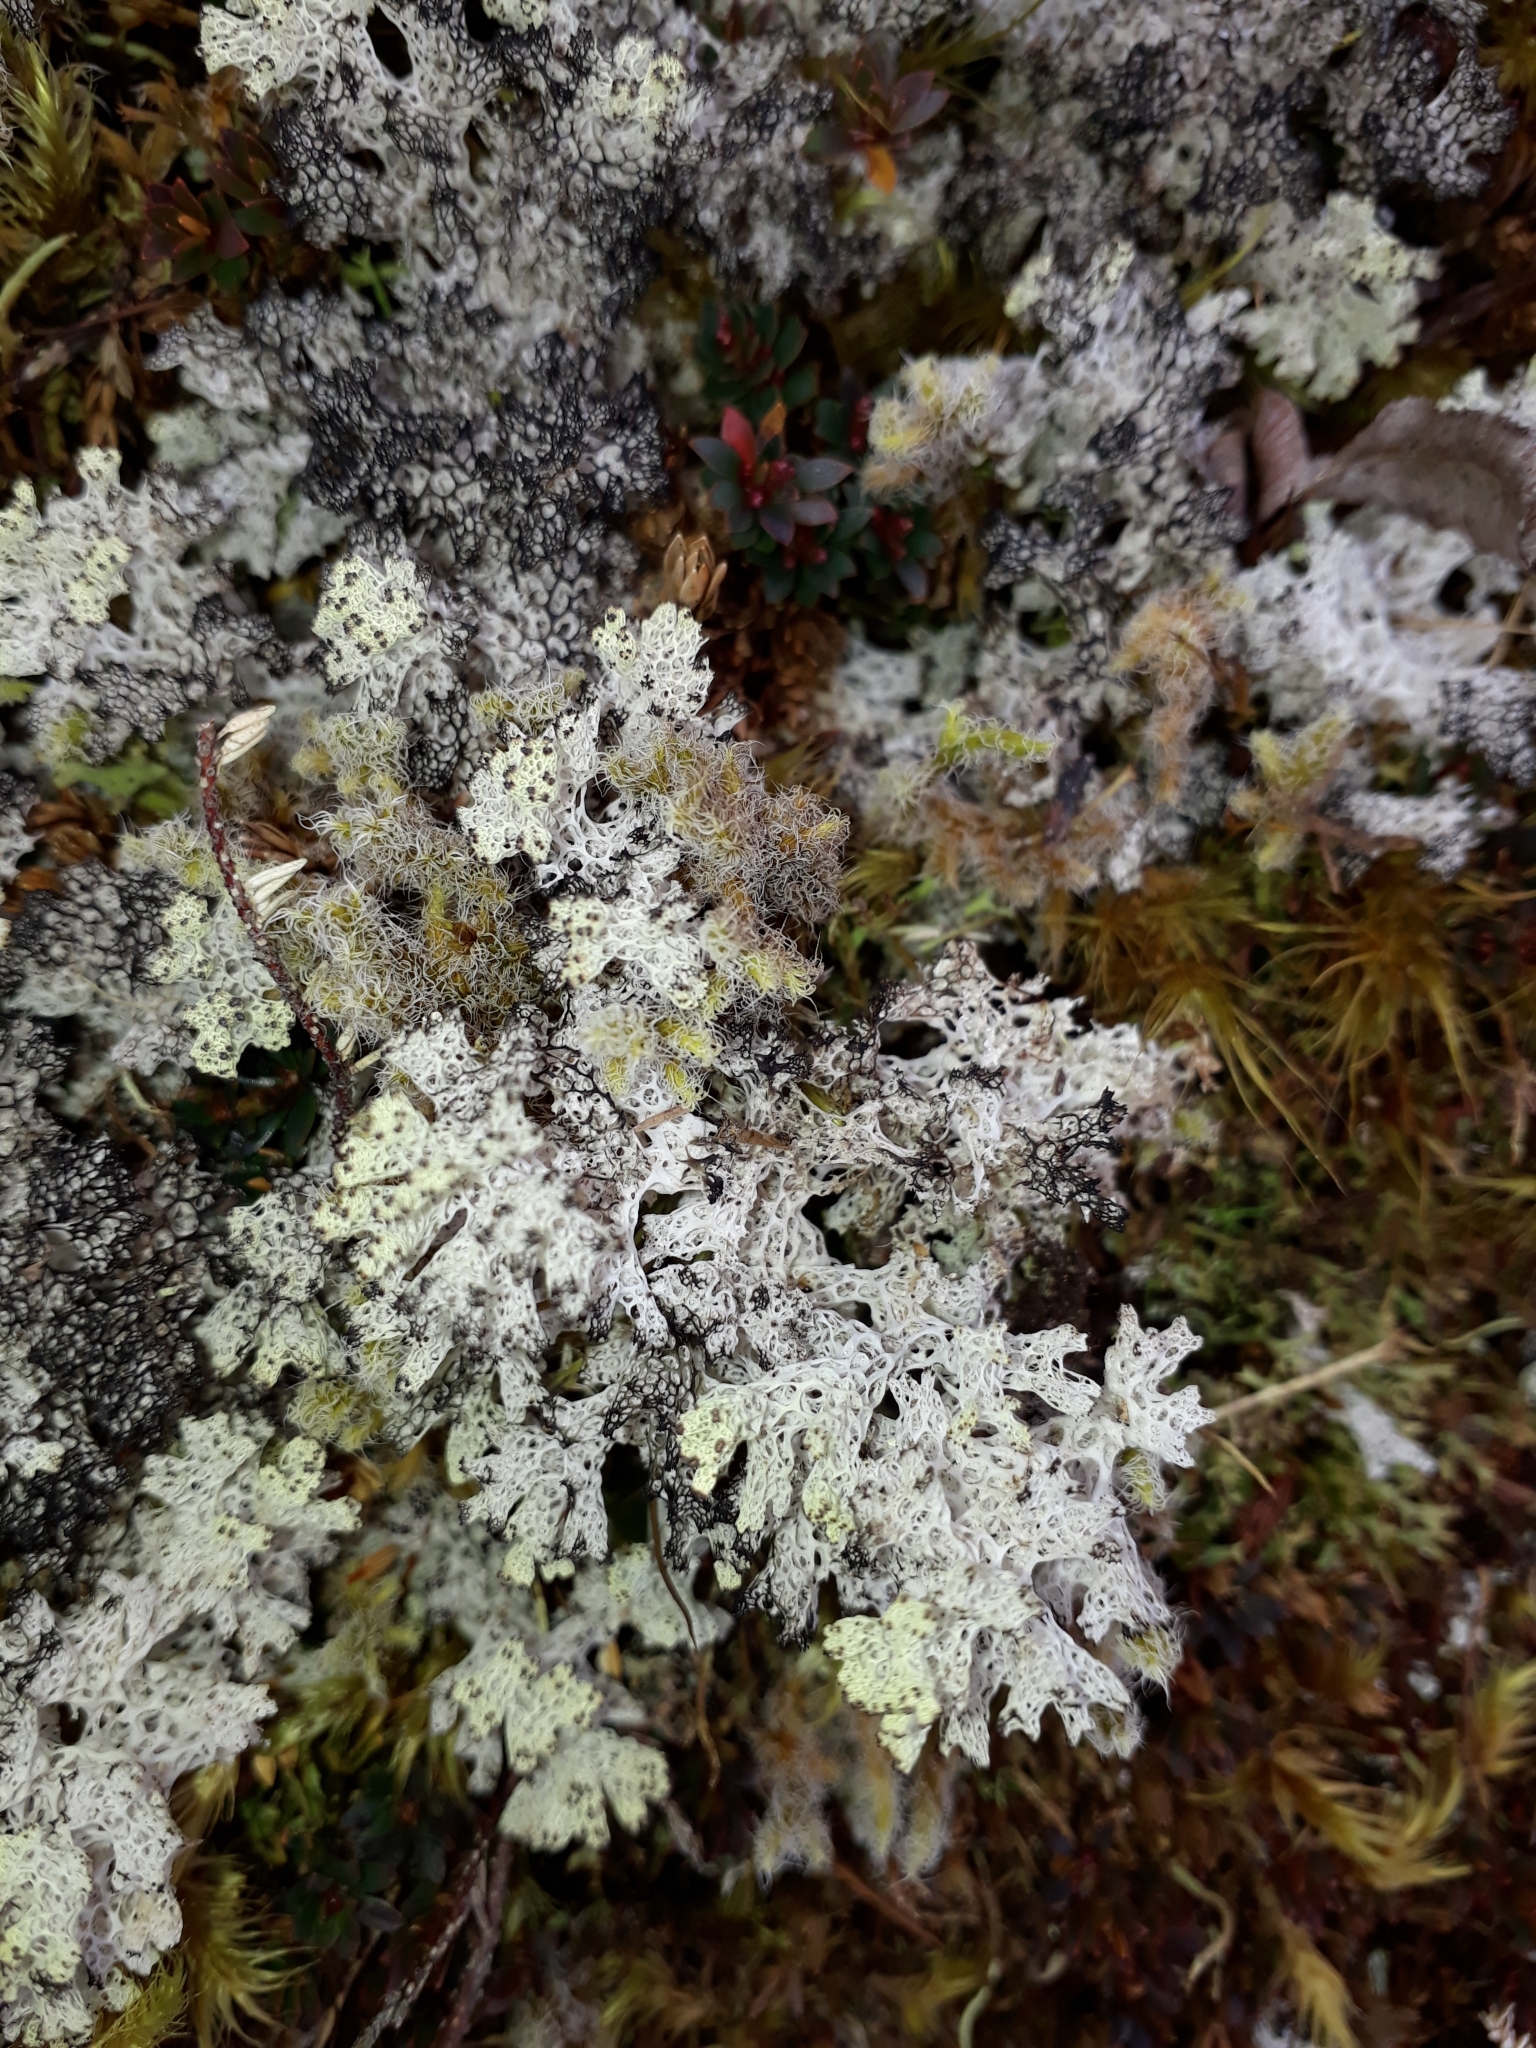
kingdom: Fungi
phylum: Ascomycota
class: Lecanoromycetes
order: Lecanorales
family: Cladoniaceae
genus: Pulchrocladia
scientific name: Pulchrocladia retipora
